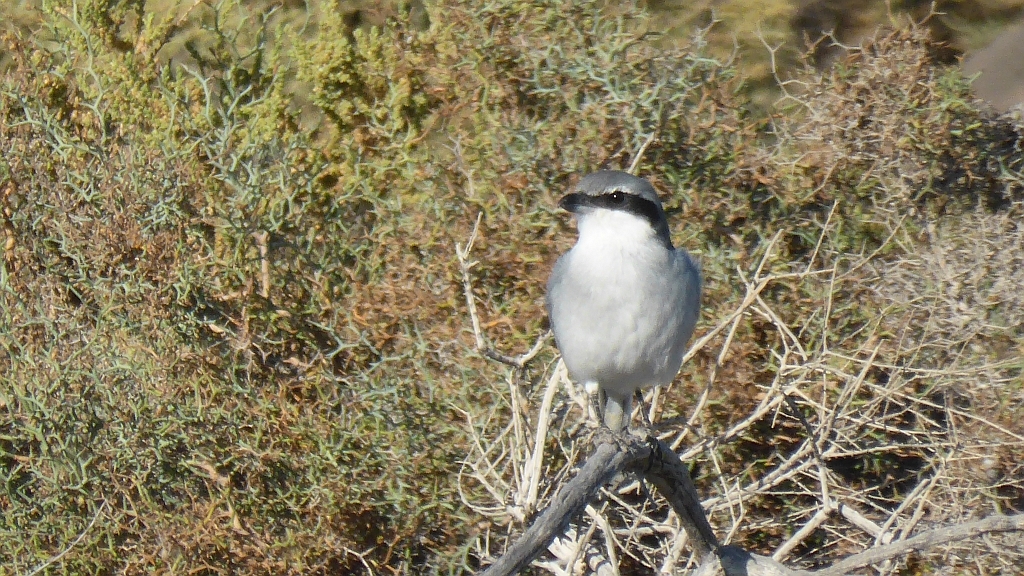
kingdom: Animalia
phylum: Chordata
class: Aves
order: Passeriformes
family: Laniidae
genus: Lanius
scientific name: Lanius excubitor
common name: Great grey shrike
